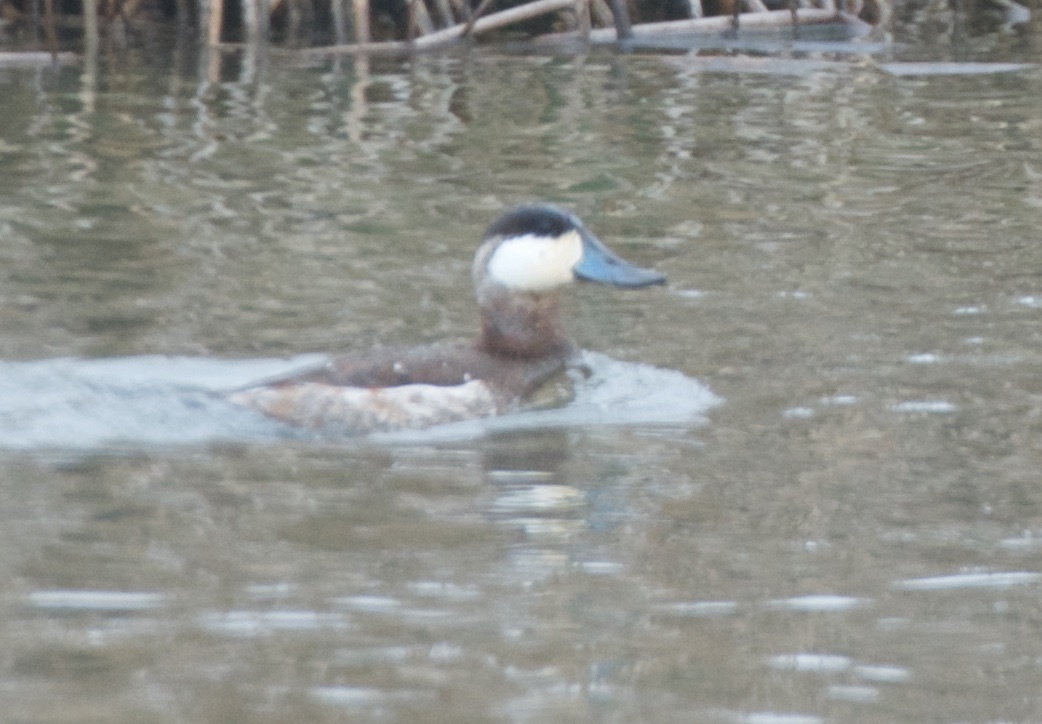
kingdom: Animalia
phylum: Chordata
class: Aves
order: Anseriformes
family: Anatidae
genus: Oxyura
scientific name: Oxyura jamaicensis
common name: Ruddy duck
